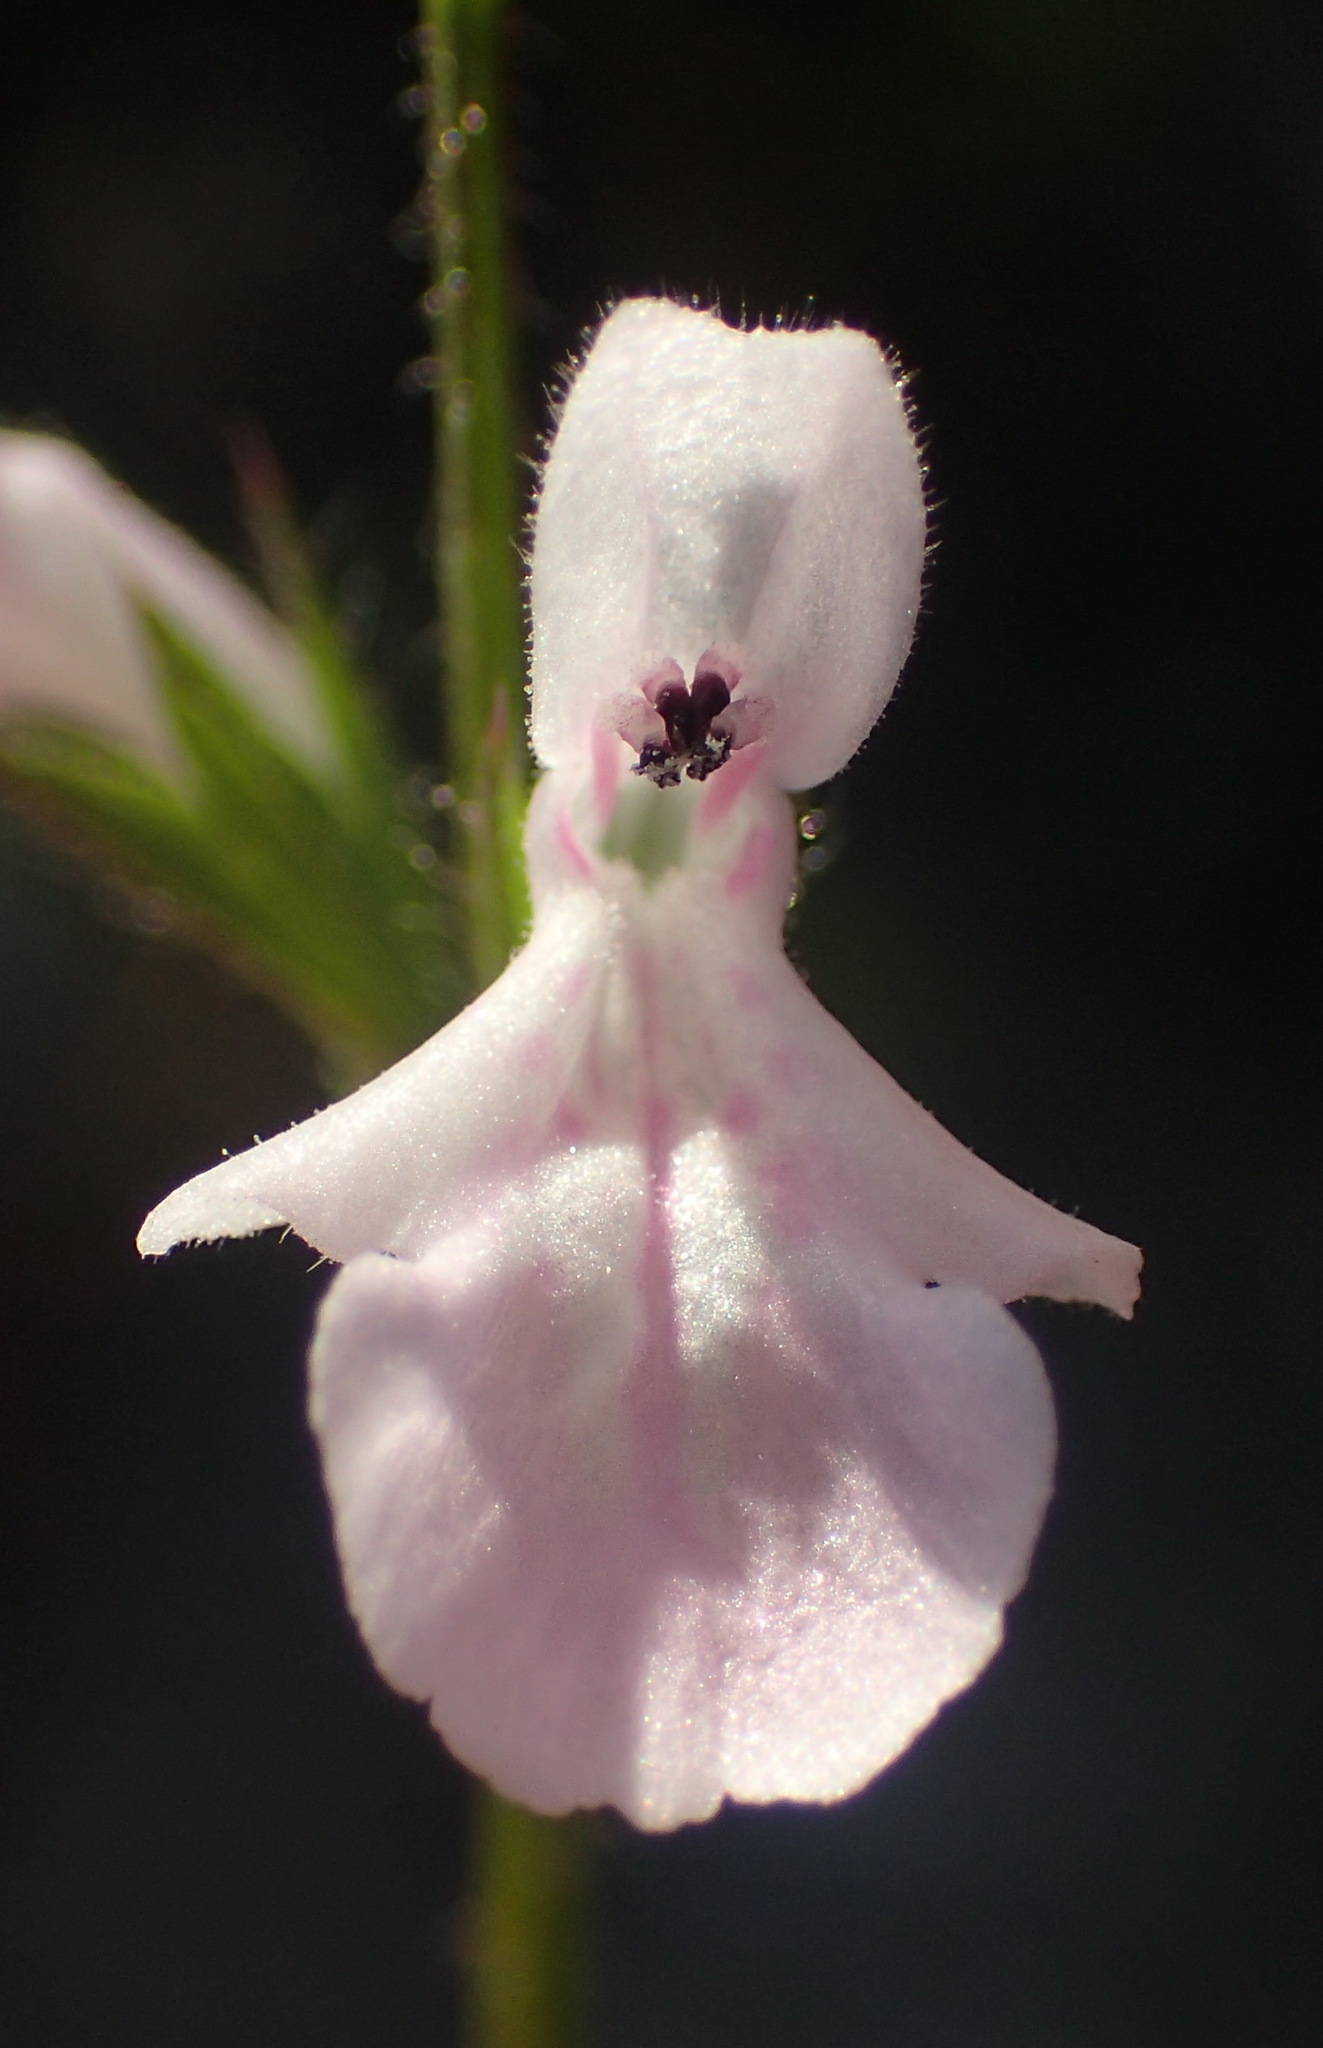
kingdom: Plantae
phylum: Tracheophyta
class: Magnoliopsida
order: Lamiales
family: Lamiaceae
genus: Stachys
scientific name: Stachys aethiopica
